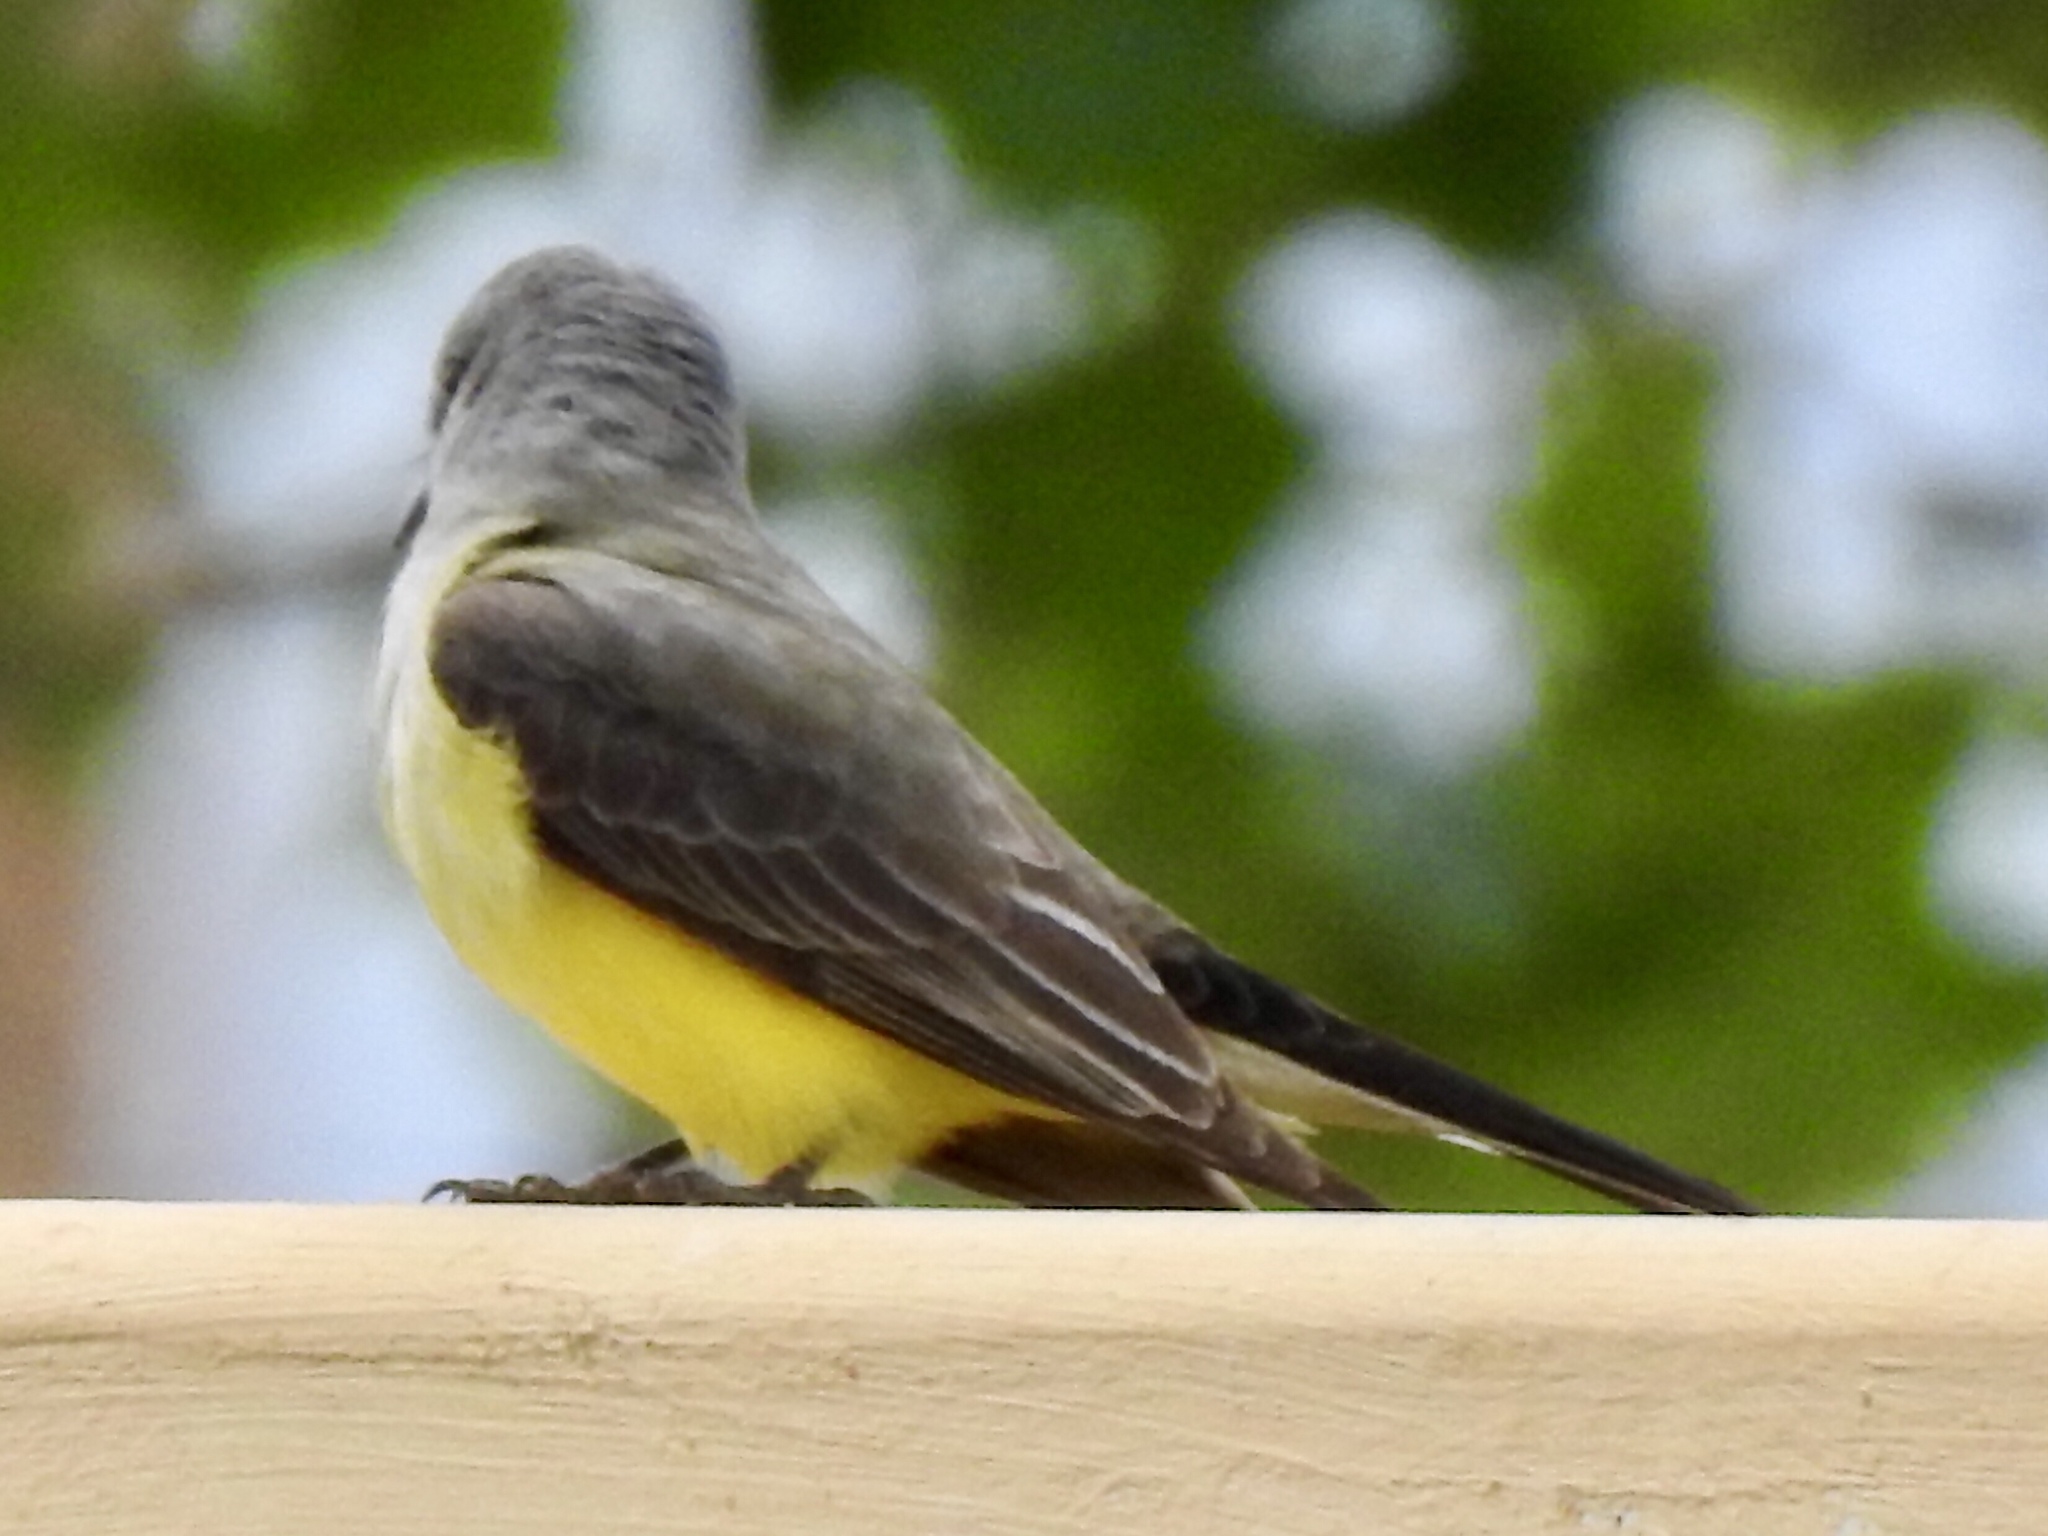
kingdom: Animalia
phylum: Chordata
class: Aves
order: Passeriformes
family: Tyrannidae
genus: Tyrannus
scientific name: Tyrannus verticalis
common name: Western kingbird
